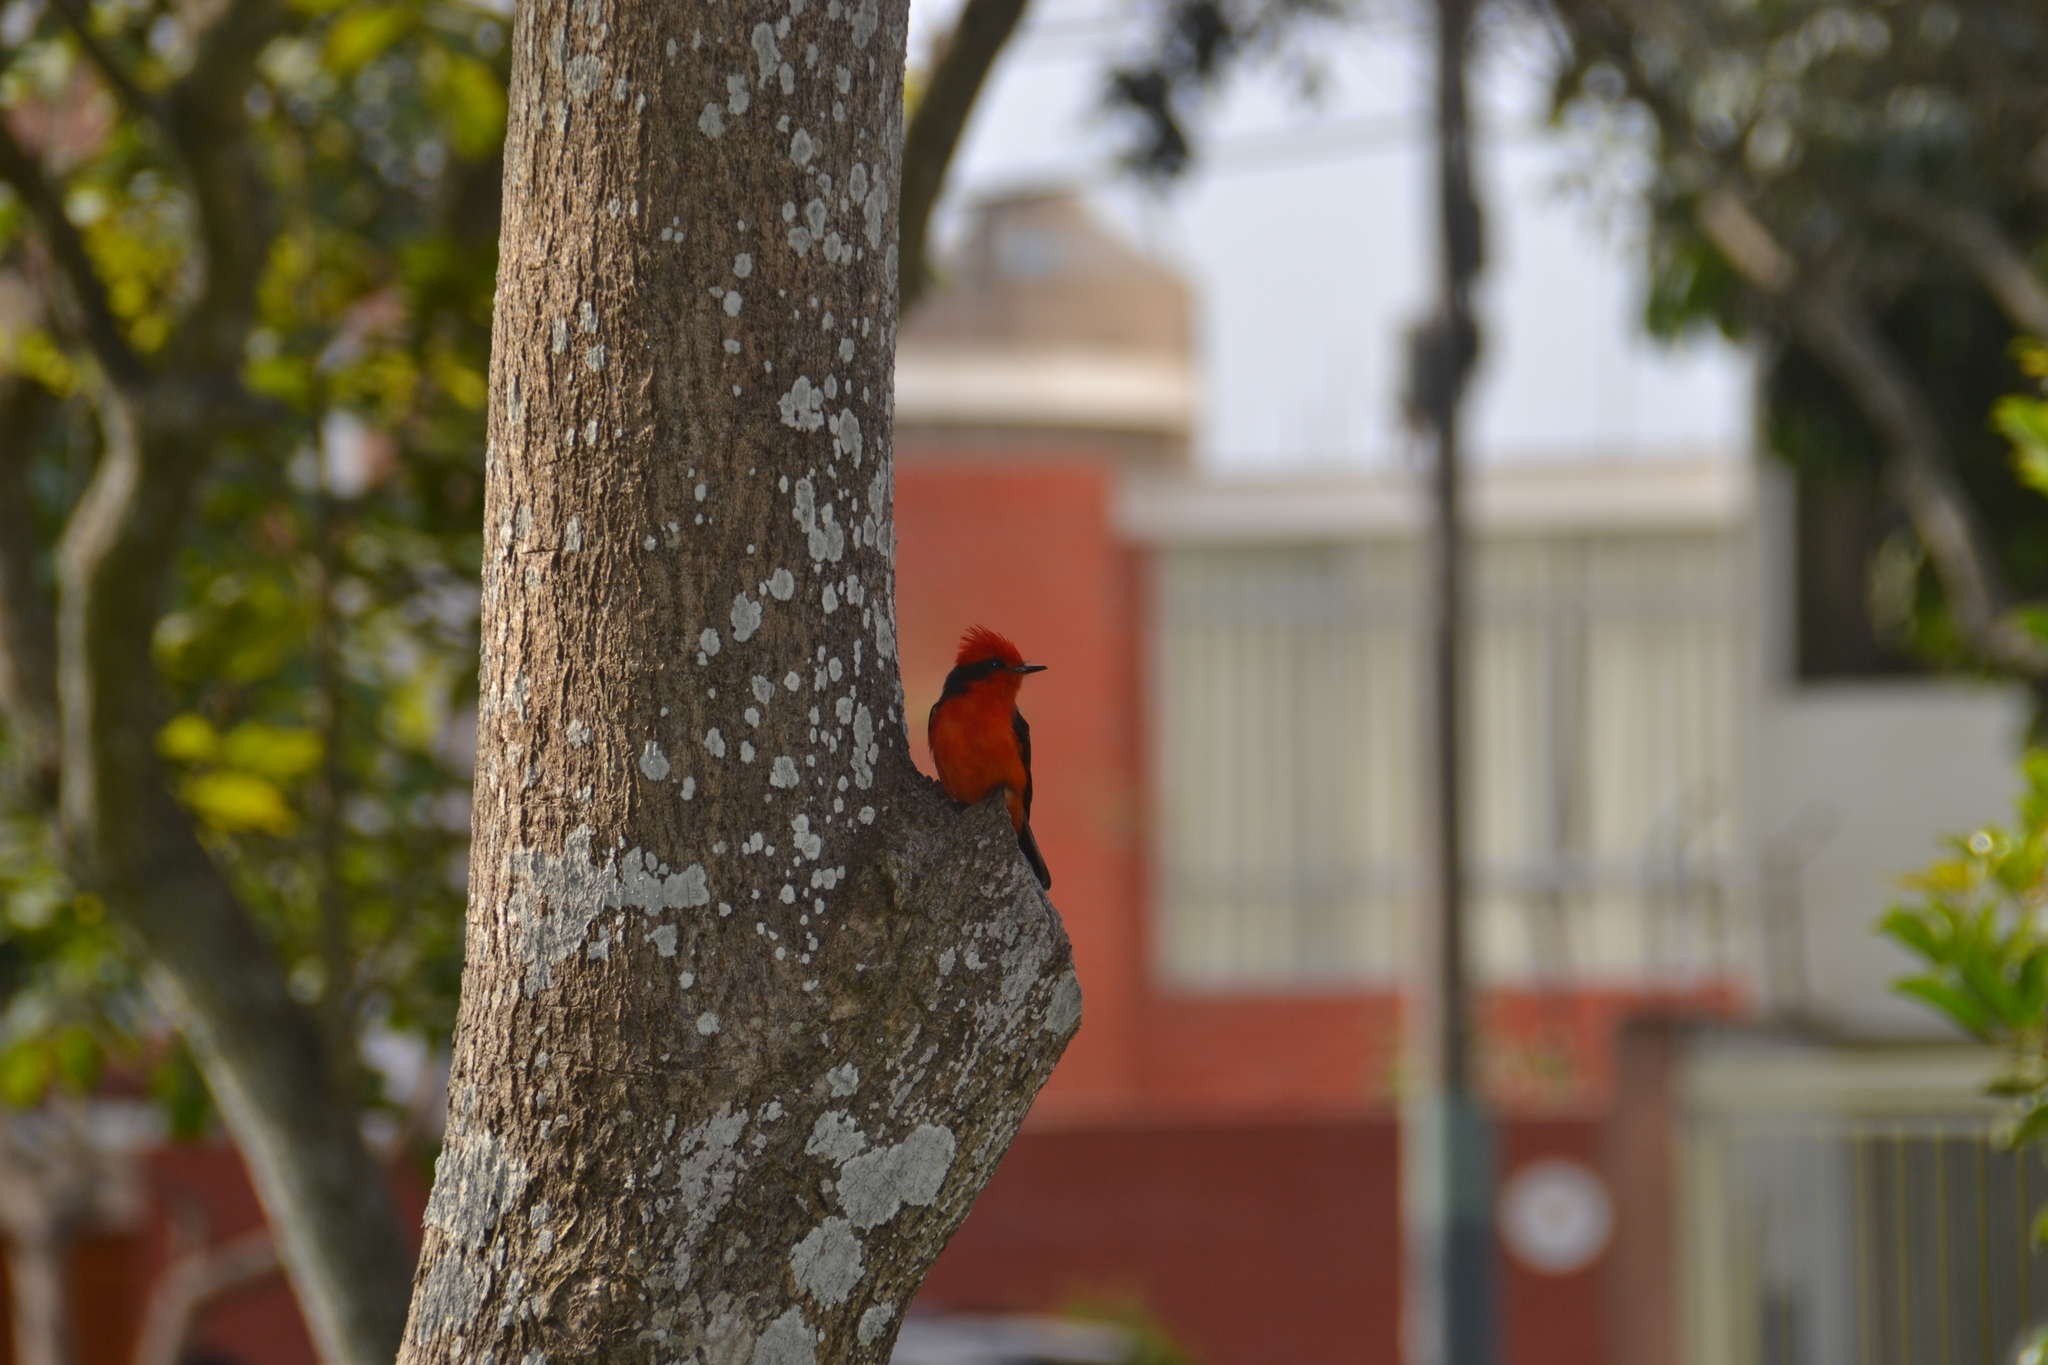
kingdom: Animalia
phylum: Chordata
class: Aves
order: Passeriformes
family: Tyrannidae
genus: Pyrocephalus
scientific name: Pyrocephalus rubinus
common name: Vermilion flycatcher
